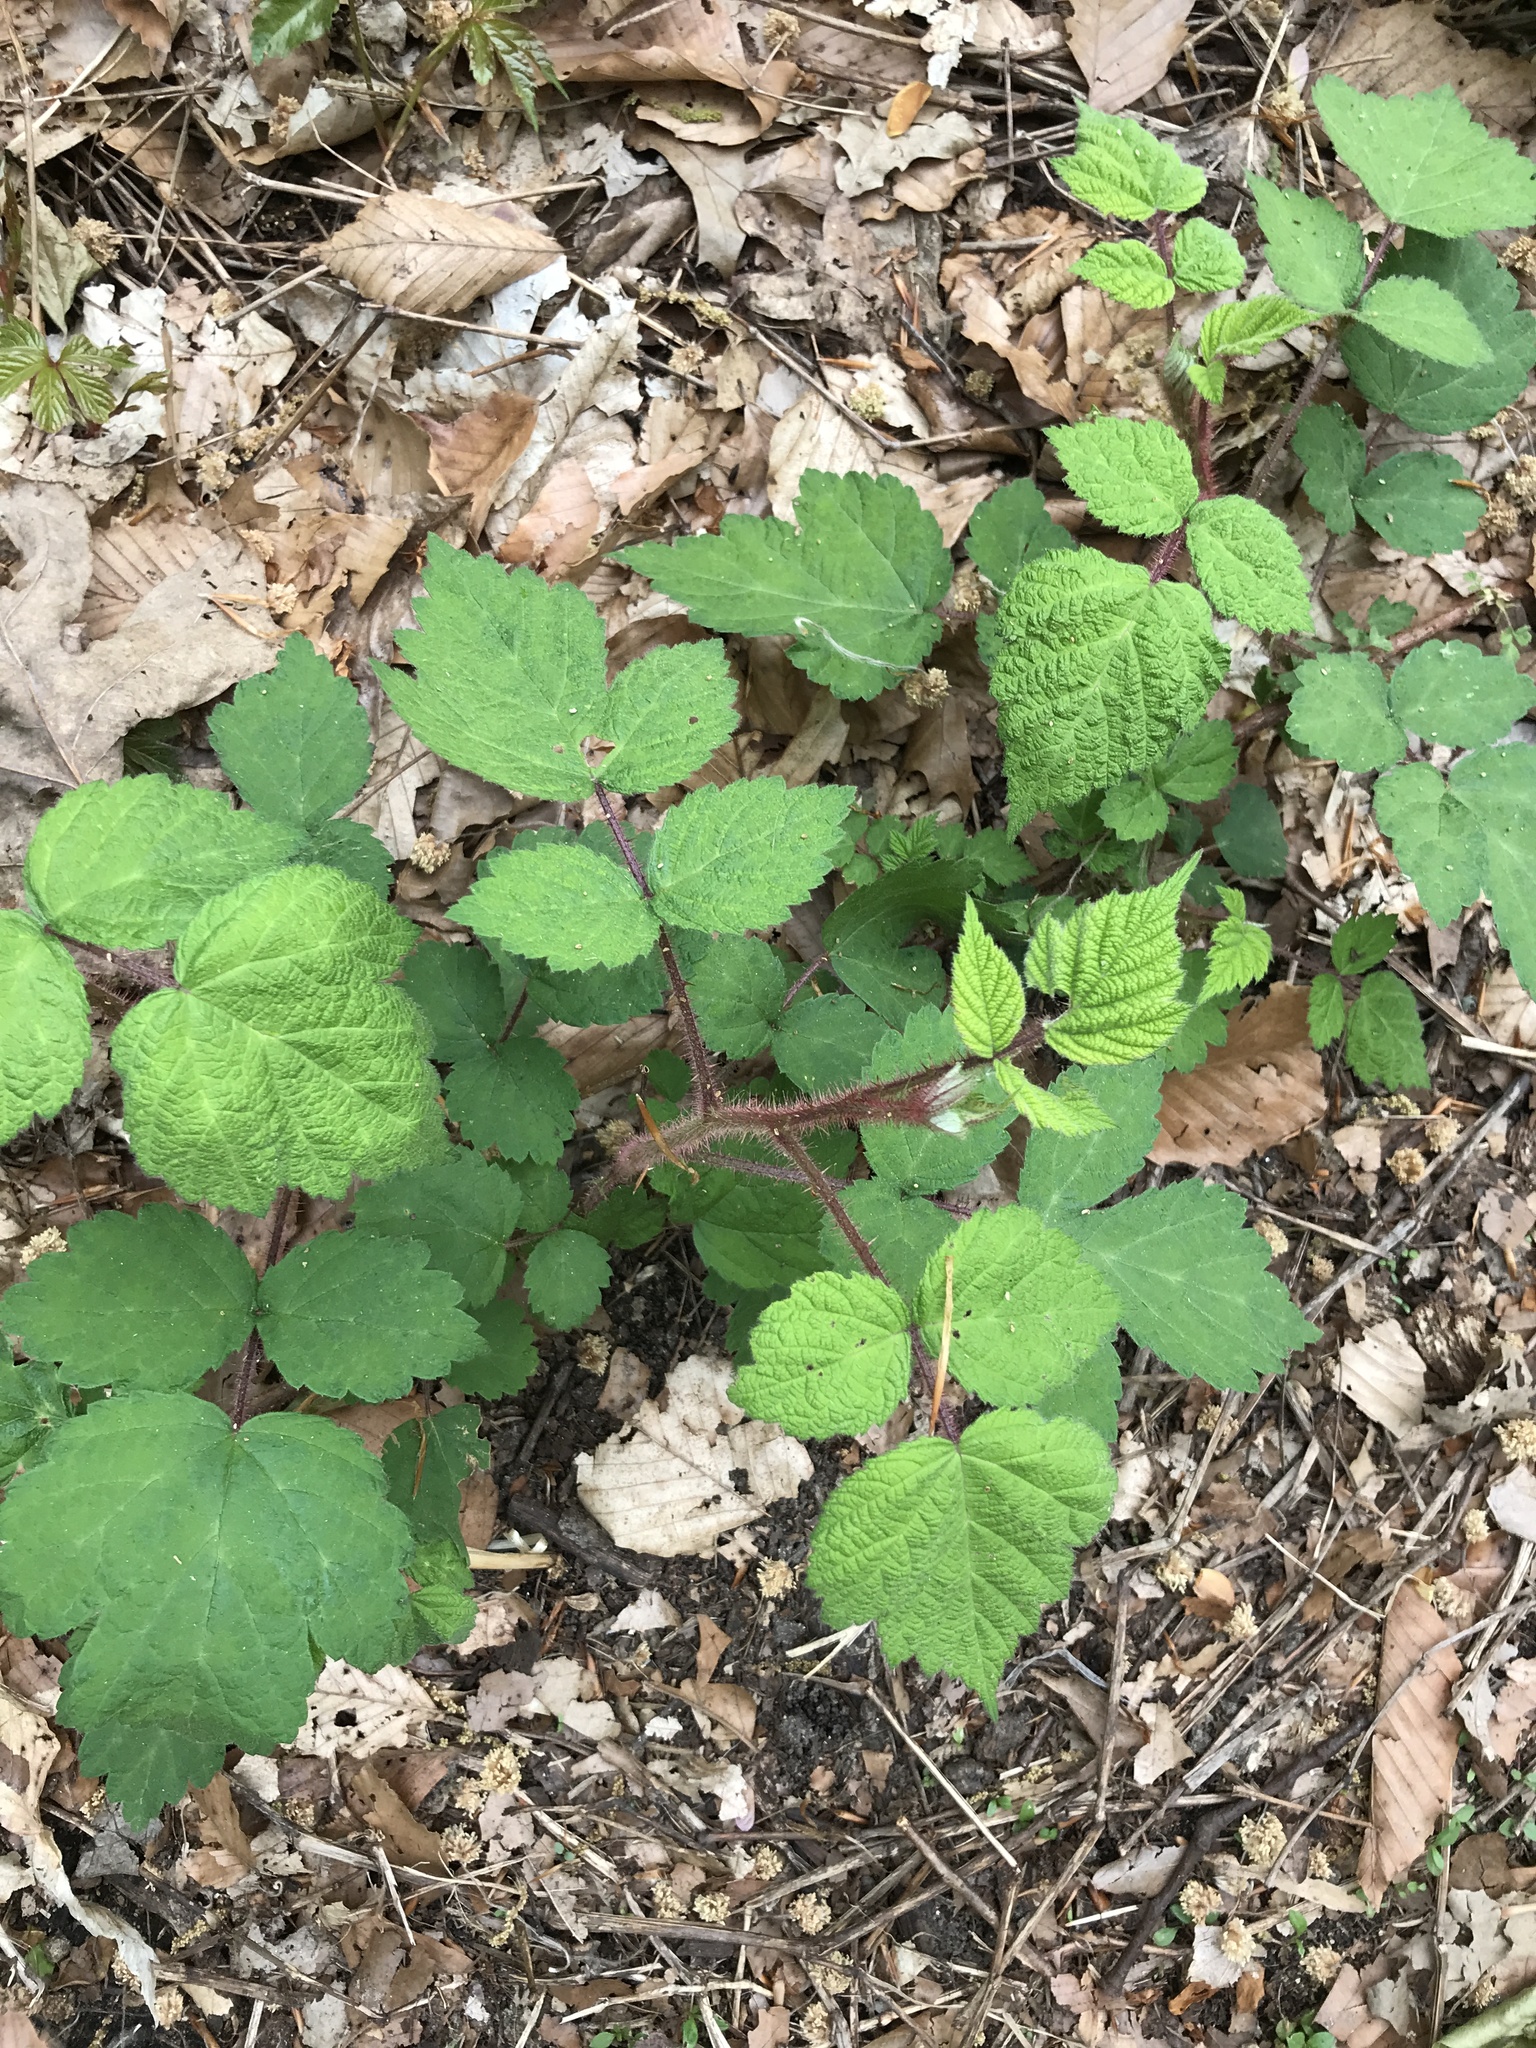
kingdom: Plantae
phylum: Tracheophyta
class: Magnoliopsida
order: Rosales
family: Rosaceae
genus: Rubus
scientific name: Rubus phoenicolasius
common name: Japanese wineberry
